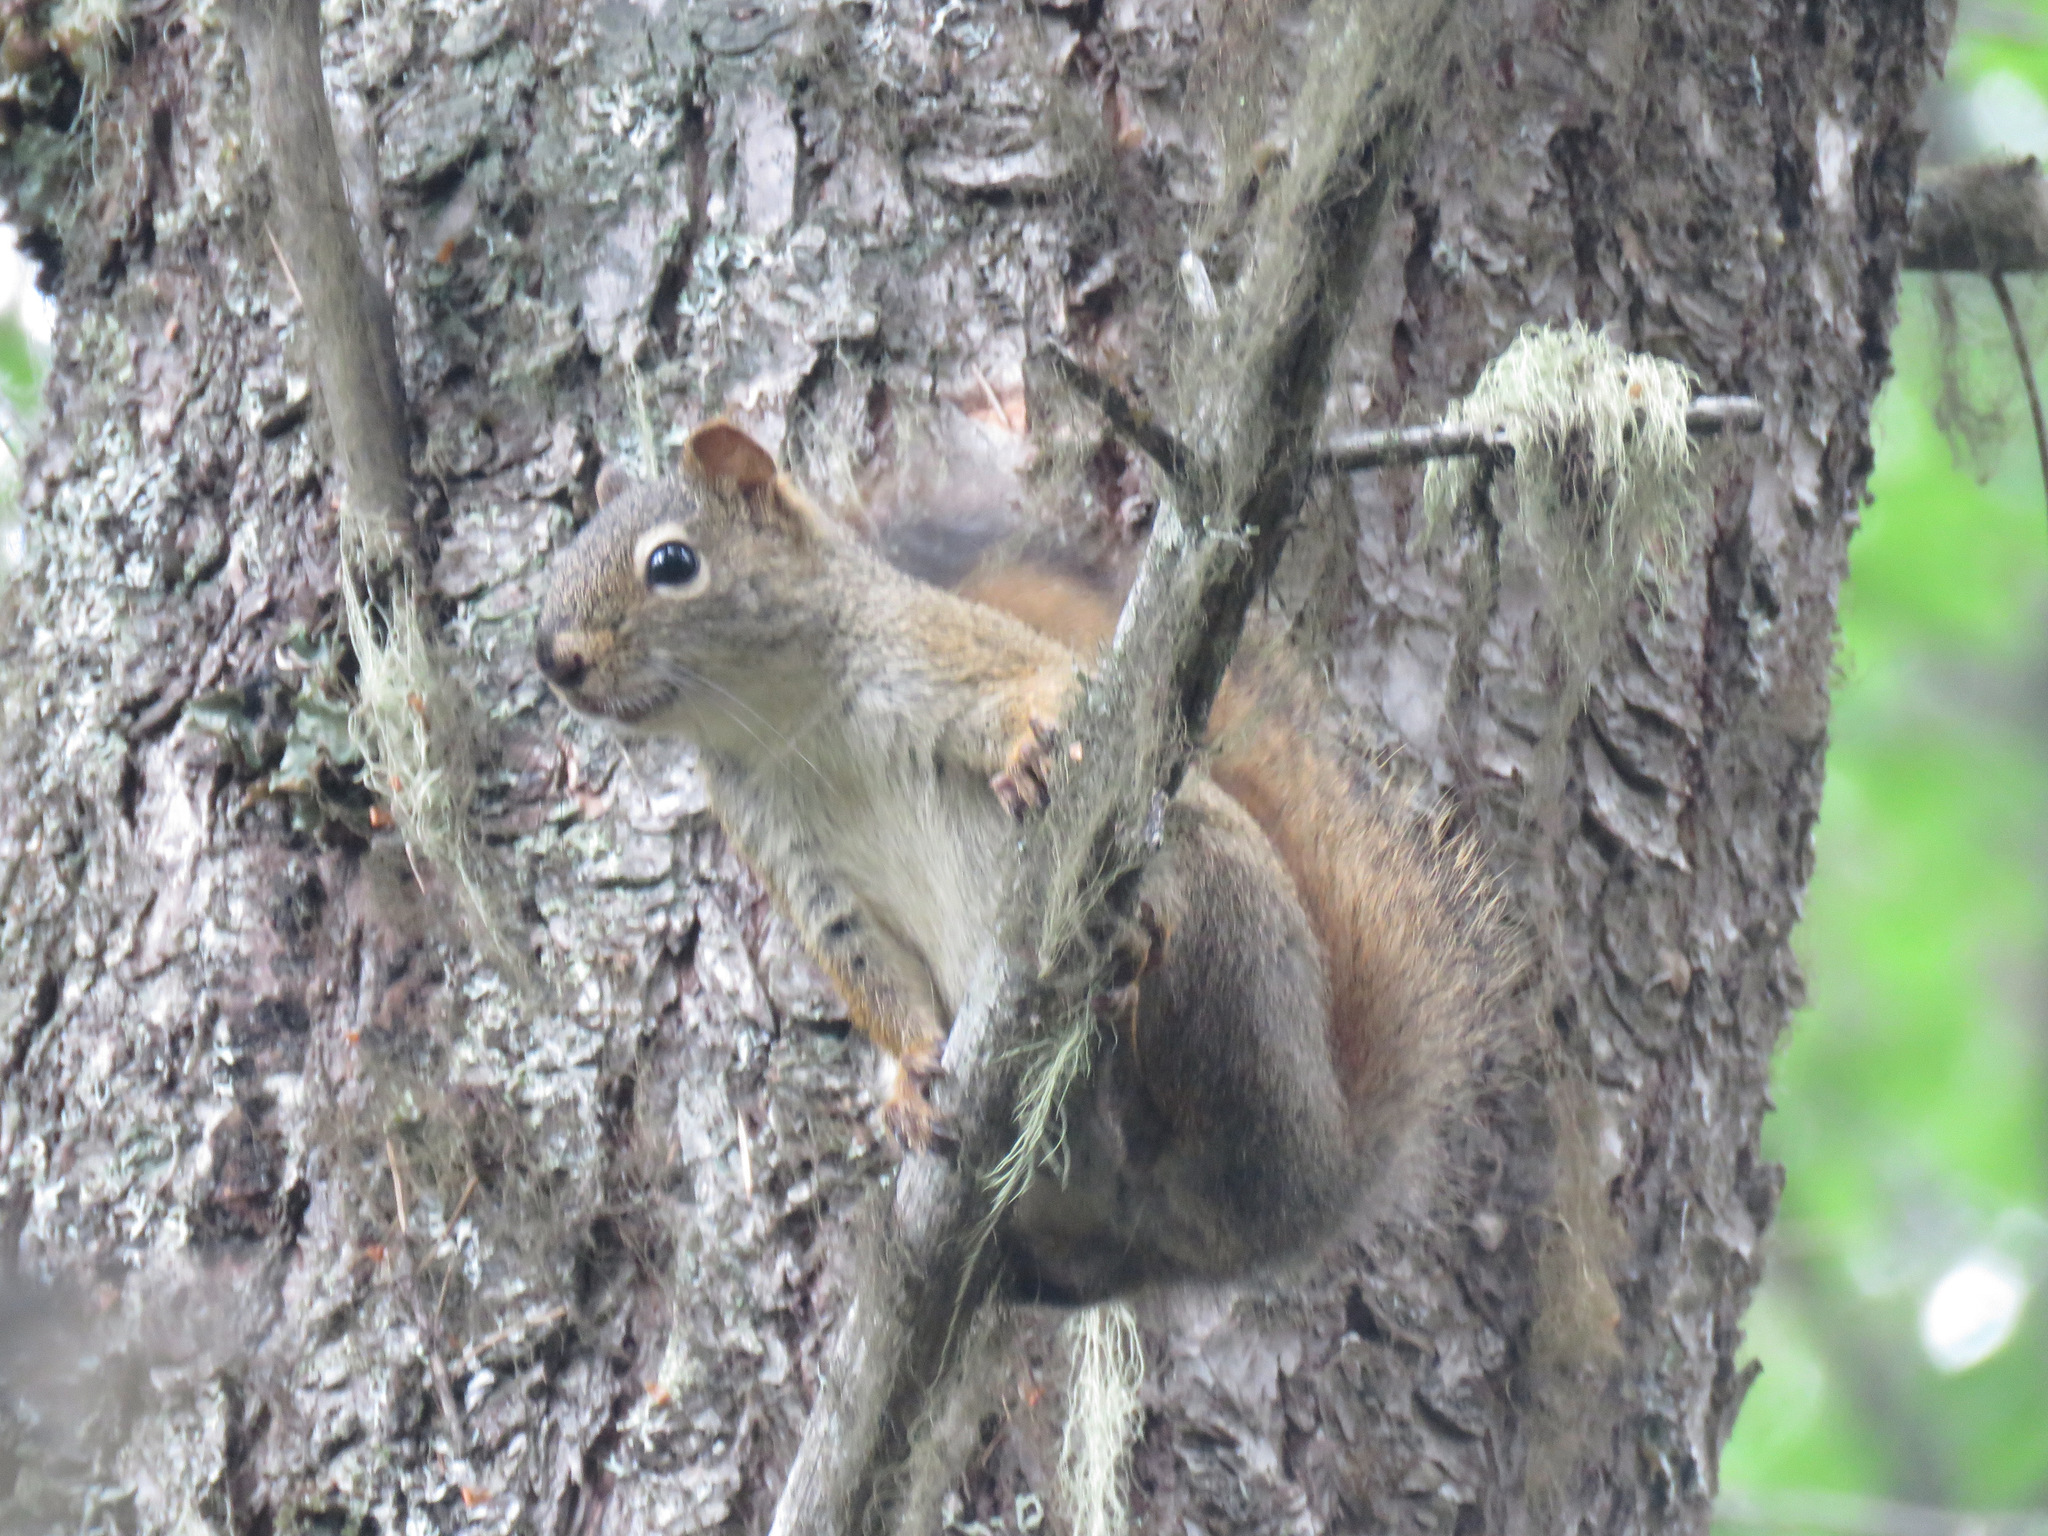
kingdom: Animalia
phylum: Chordata
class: Mammalia
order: Rodentia
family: Sciuridae
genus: Tamiasciurus
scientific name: Tamiasciurus hudsonicus
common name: Red squirrel
